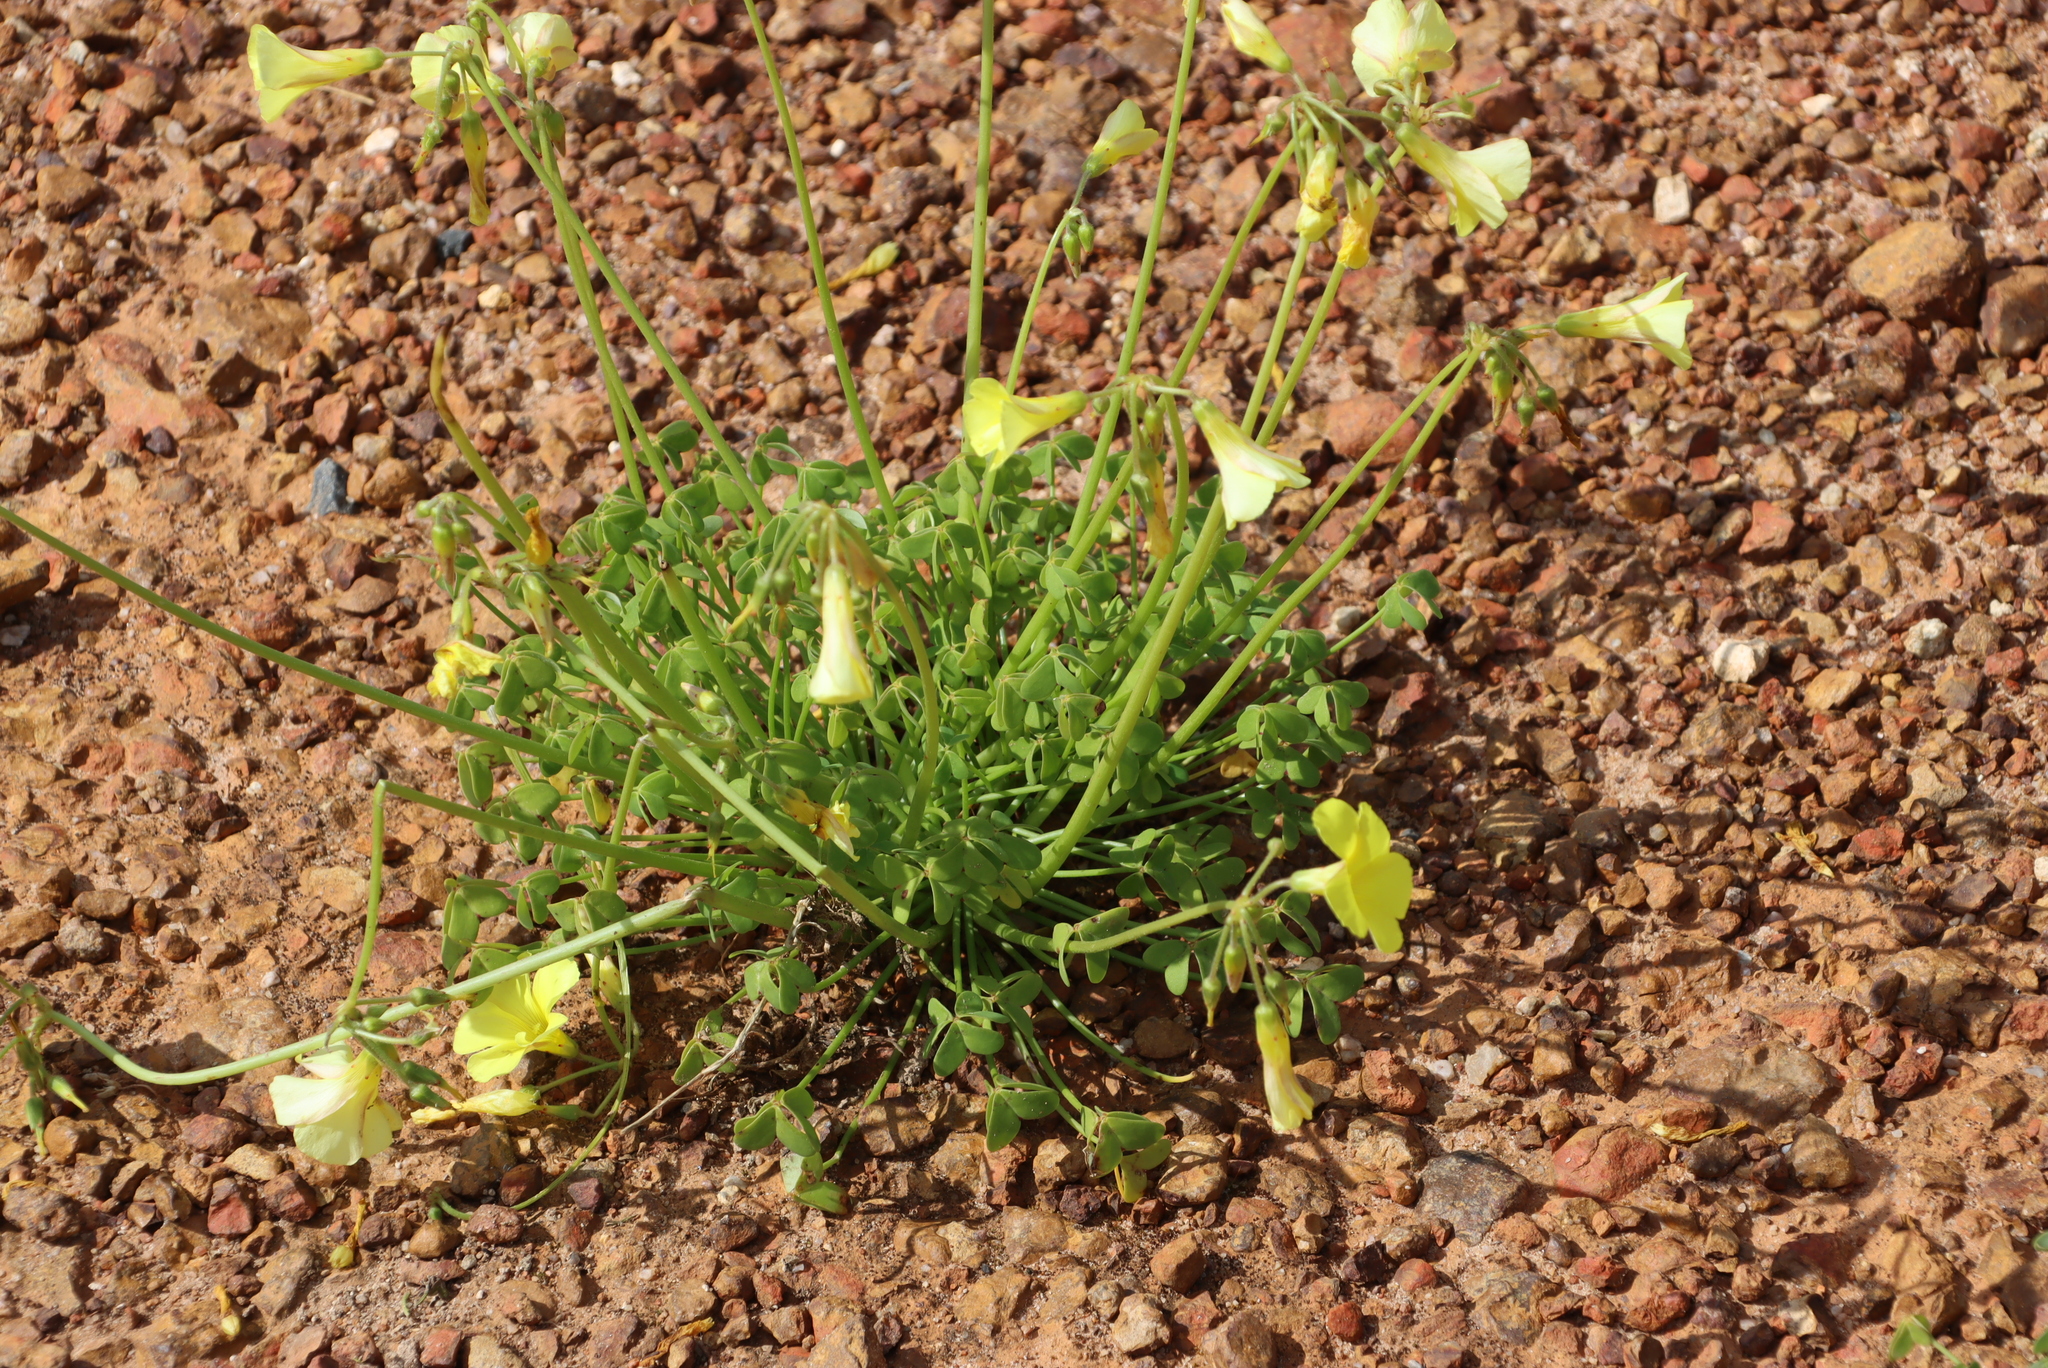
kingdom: Plantae
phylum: Tracheophyta
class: Magnoliopsida
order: Oxalidales
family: Oxalidaceae
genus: Oxalis
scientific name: Oxalis pes-caprae
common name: Bermuda-buttercup
